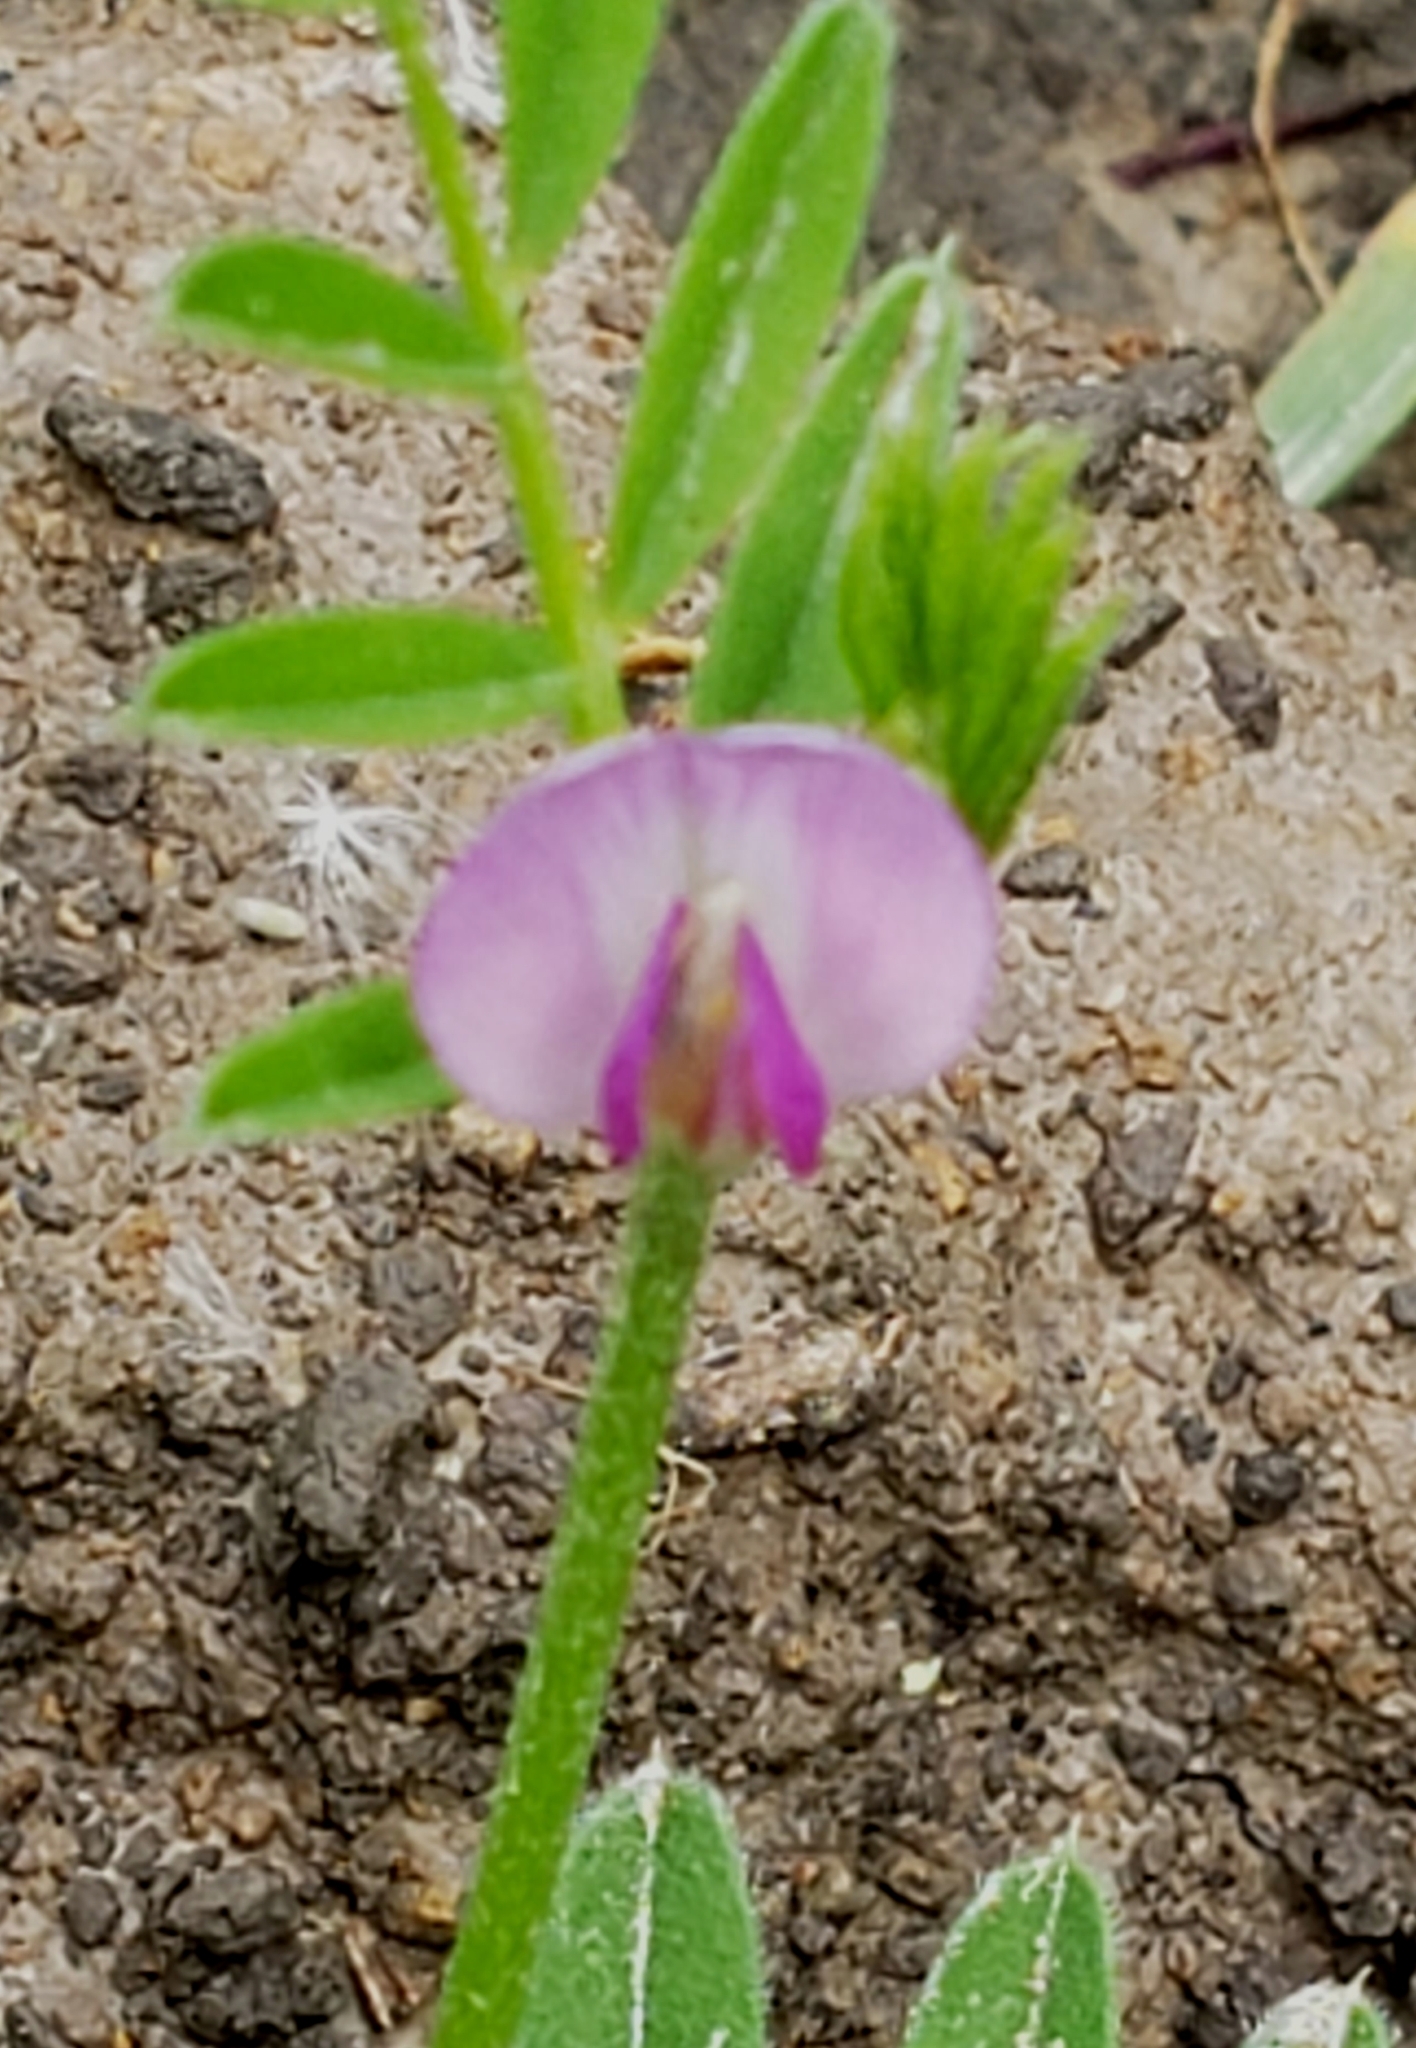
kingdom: Plantae
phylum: Tracheophyta
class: Magnoliopsida
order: Fabales
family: Fabaceae
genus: Vicia
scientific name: Vicia sativa
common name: Garden vetch
